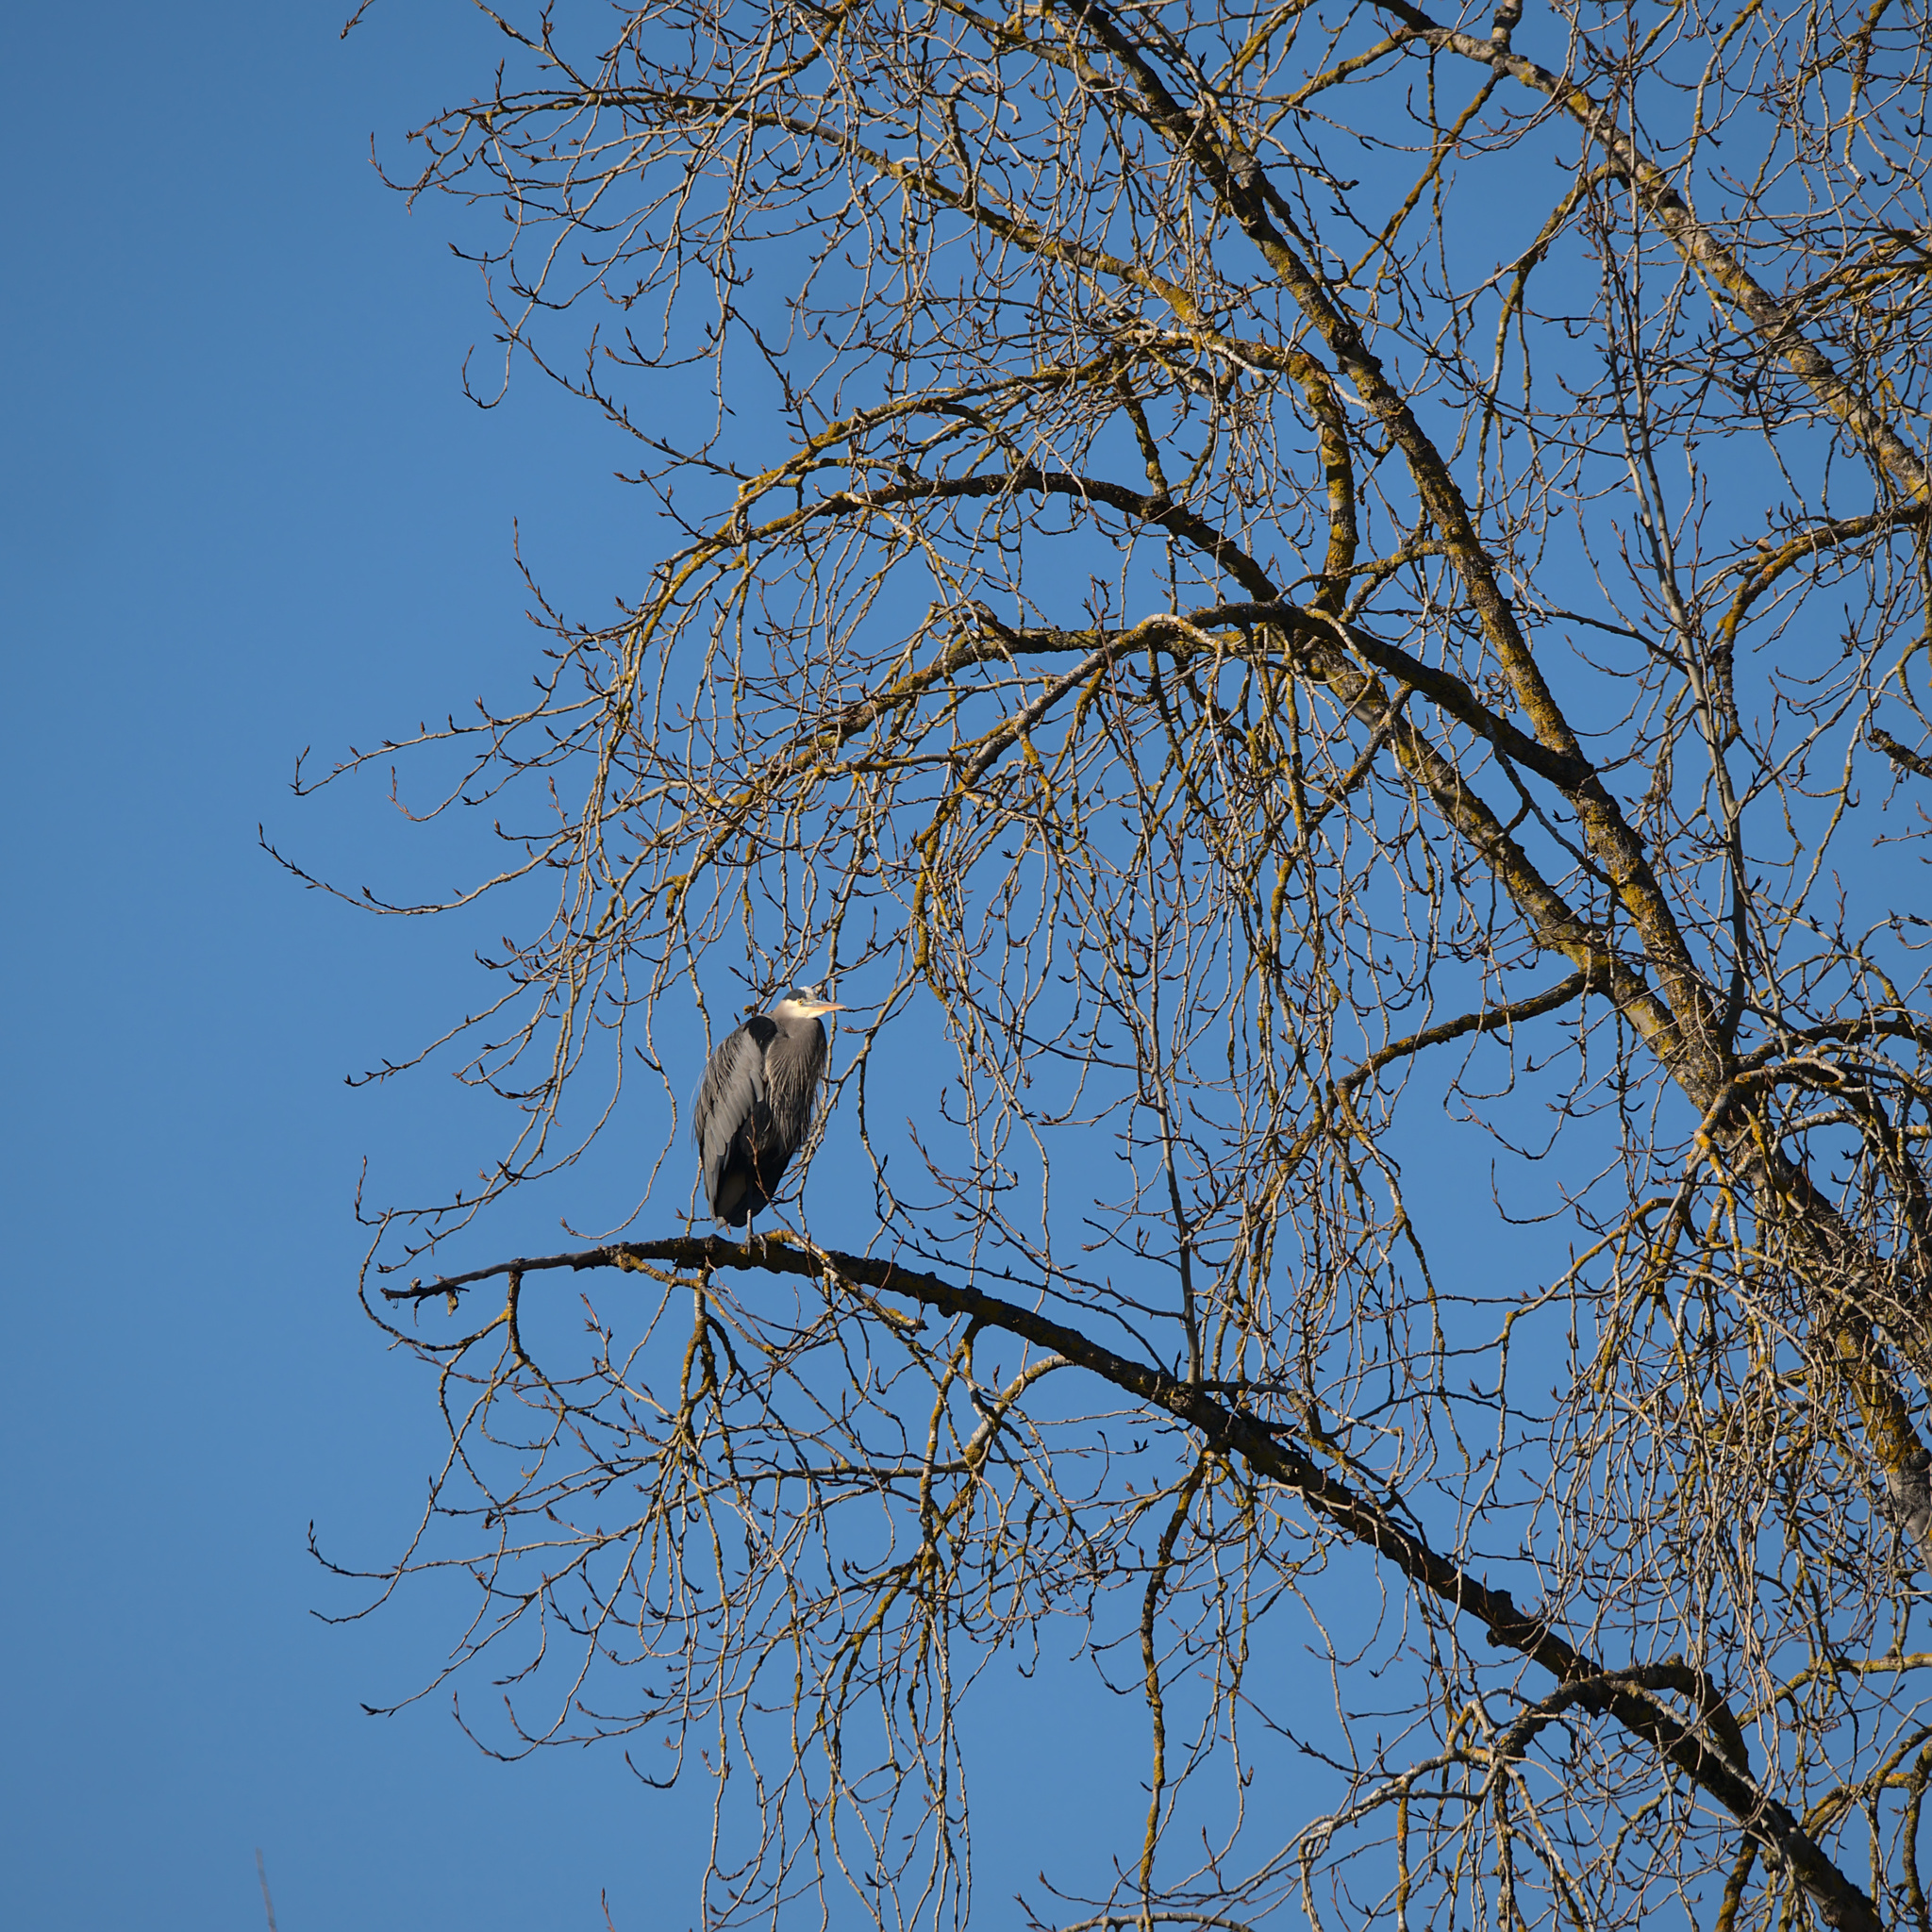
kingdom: Animalia
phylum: Chordata
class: Aves
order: Pelecaniformes
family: Ardeidae
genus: Ardea
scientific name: Ardea herodias
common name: Great blue heron
